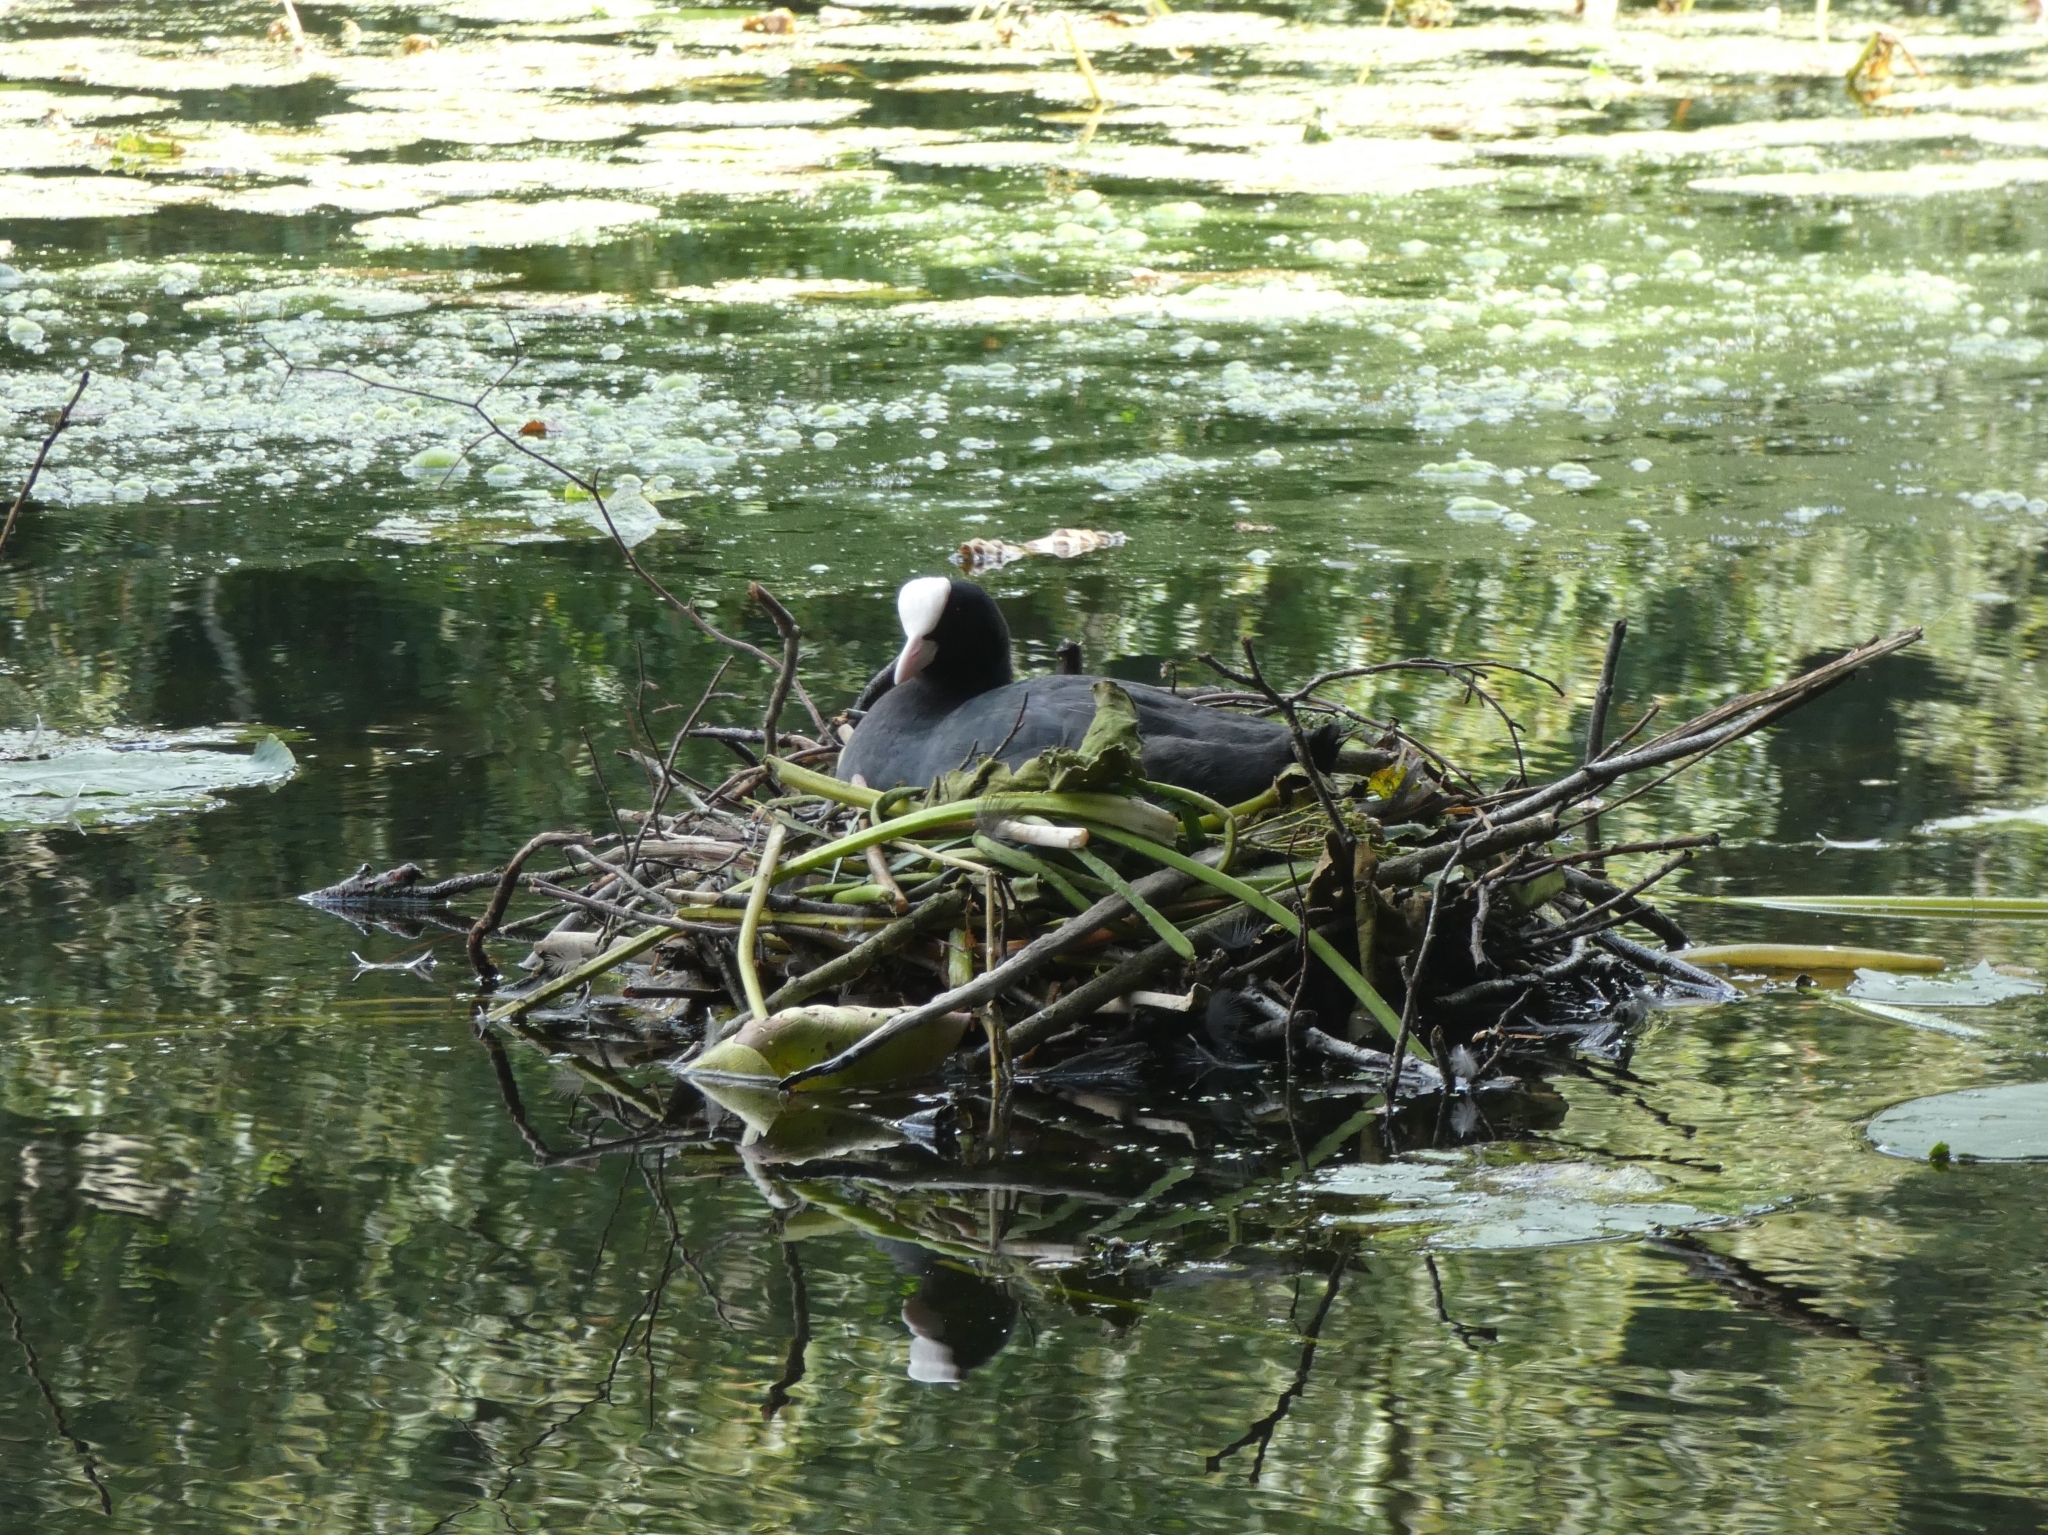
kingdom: Animalia
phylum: Chordata
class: Aves
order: Gruiformes
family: Rallidae
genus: Fulica
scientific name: Fulica atra
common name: Eurasian coot
